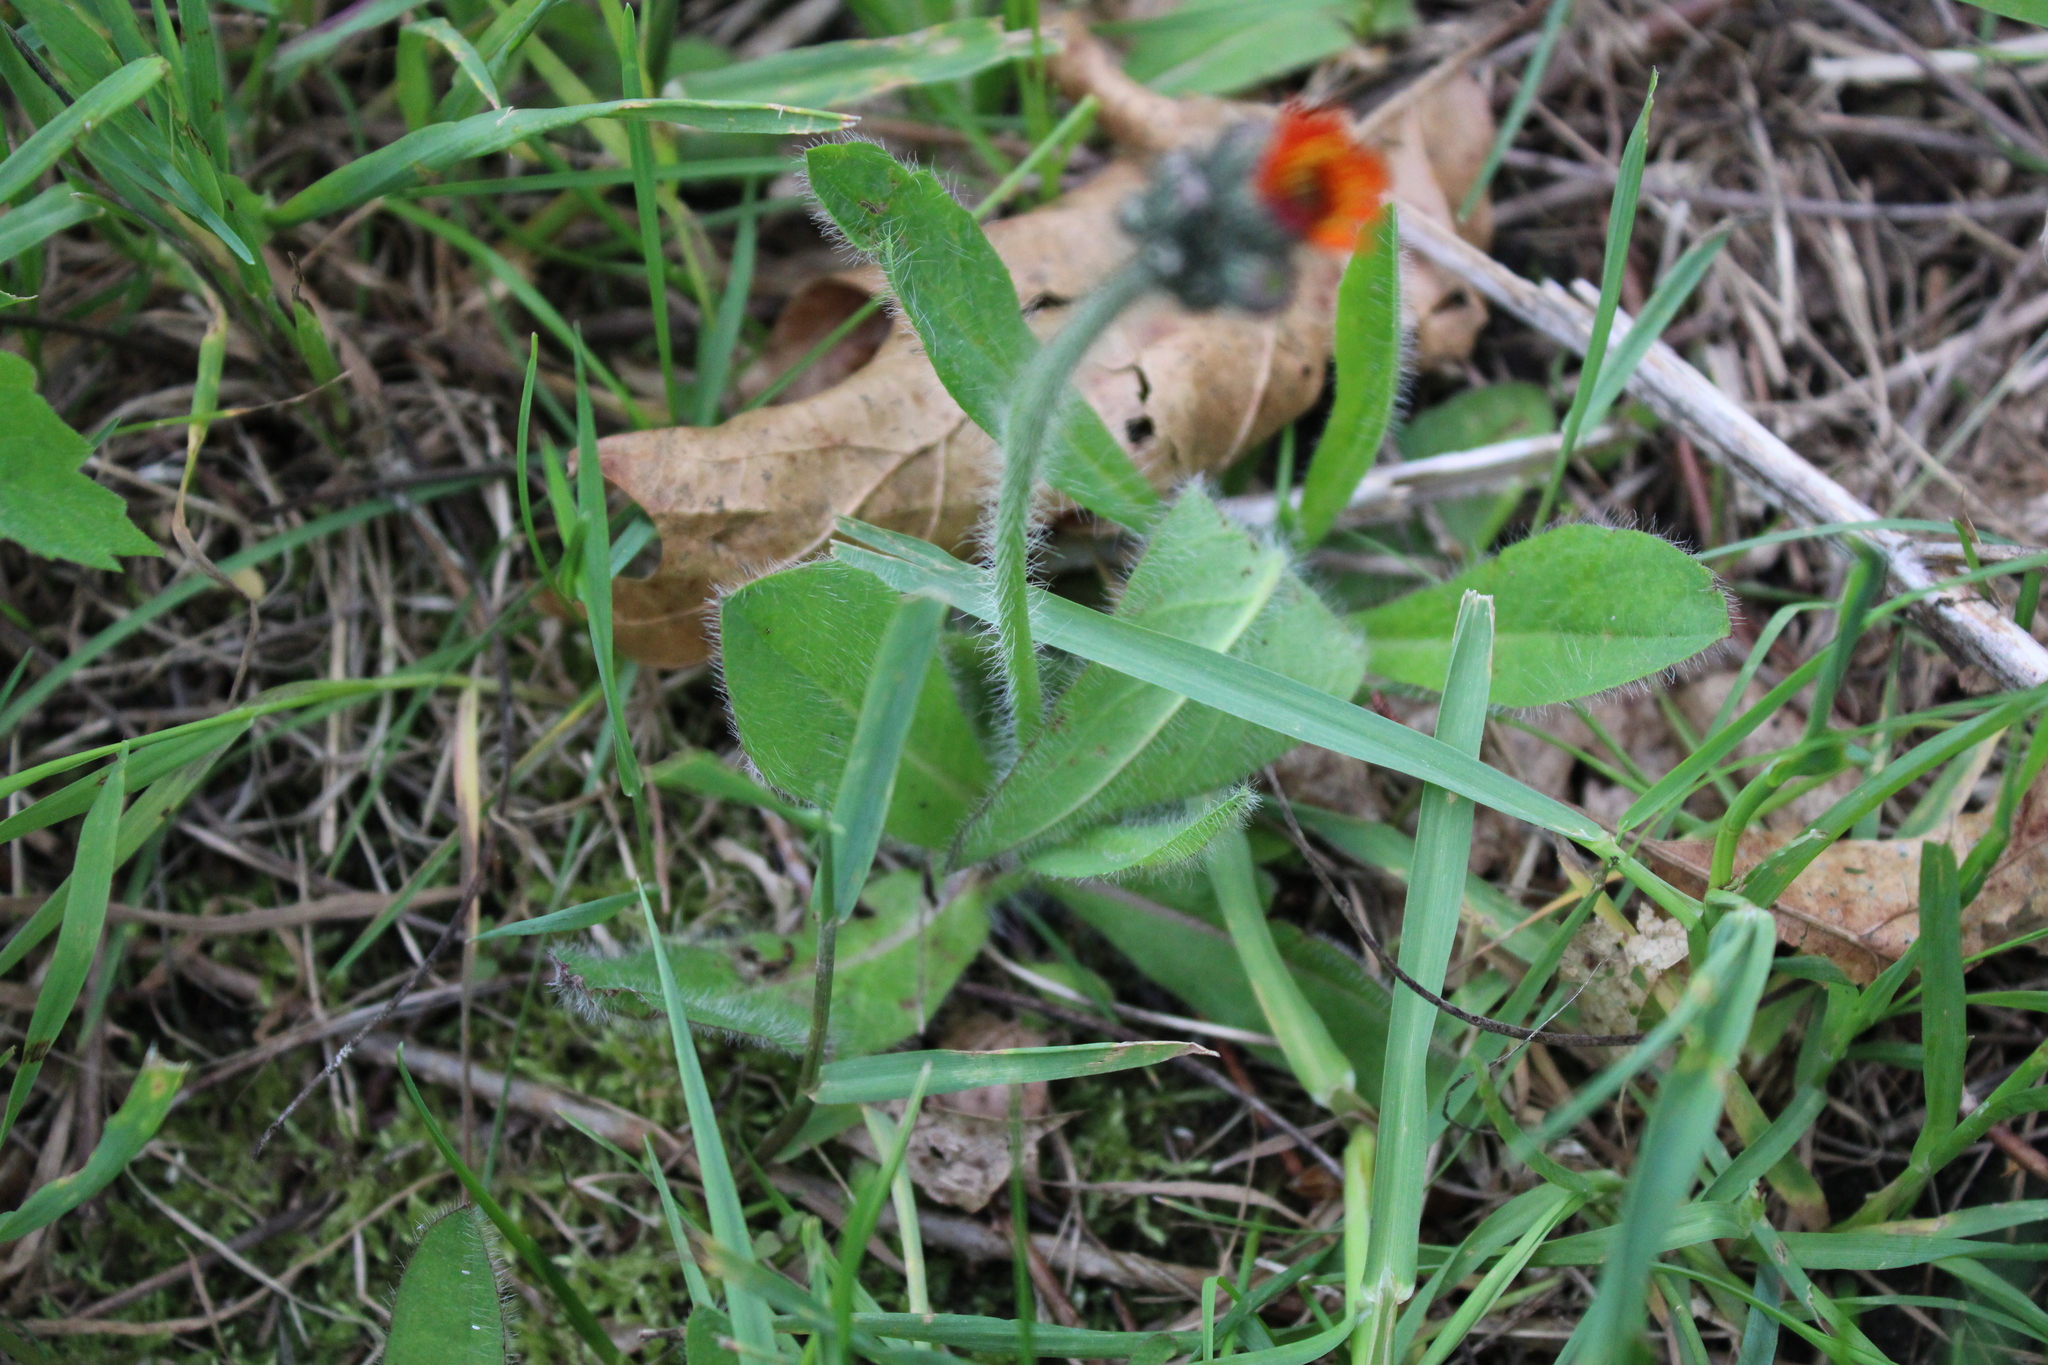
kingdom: Plantae
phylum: Tracheophyta
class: Magnoliopsida
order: Asterales
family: Asteraceae
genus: Pilosella
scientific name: Pilosella aurantiaca
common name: Fox-and-cubs
